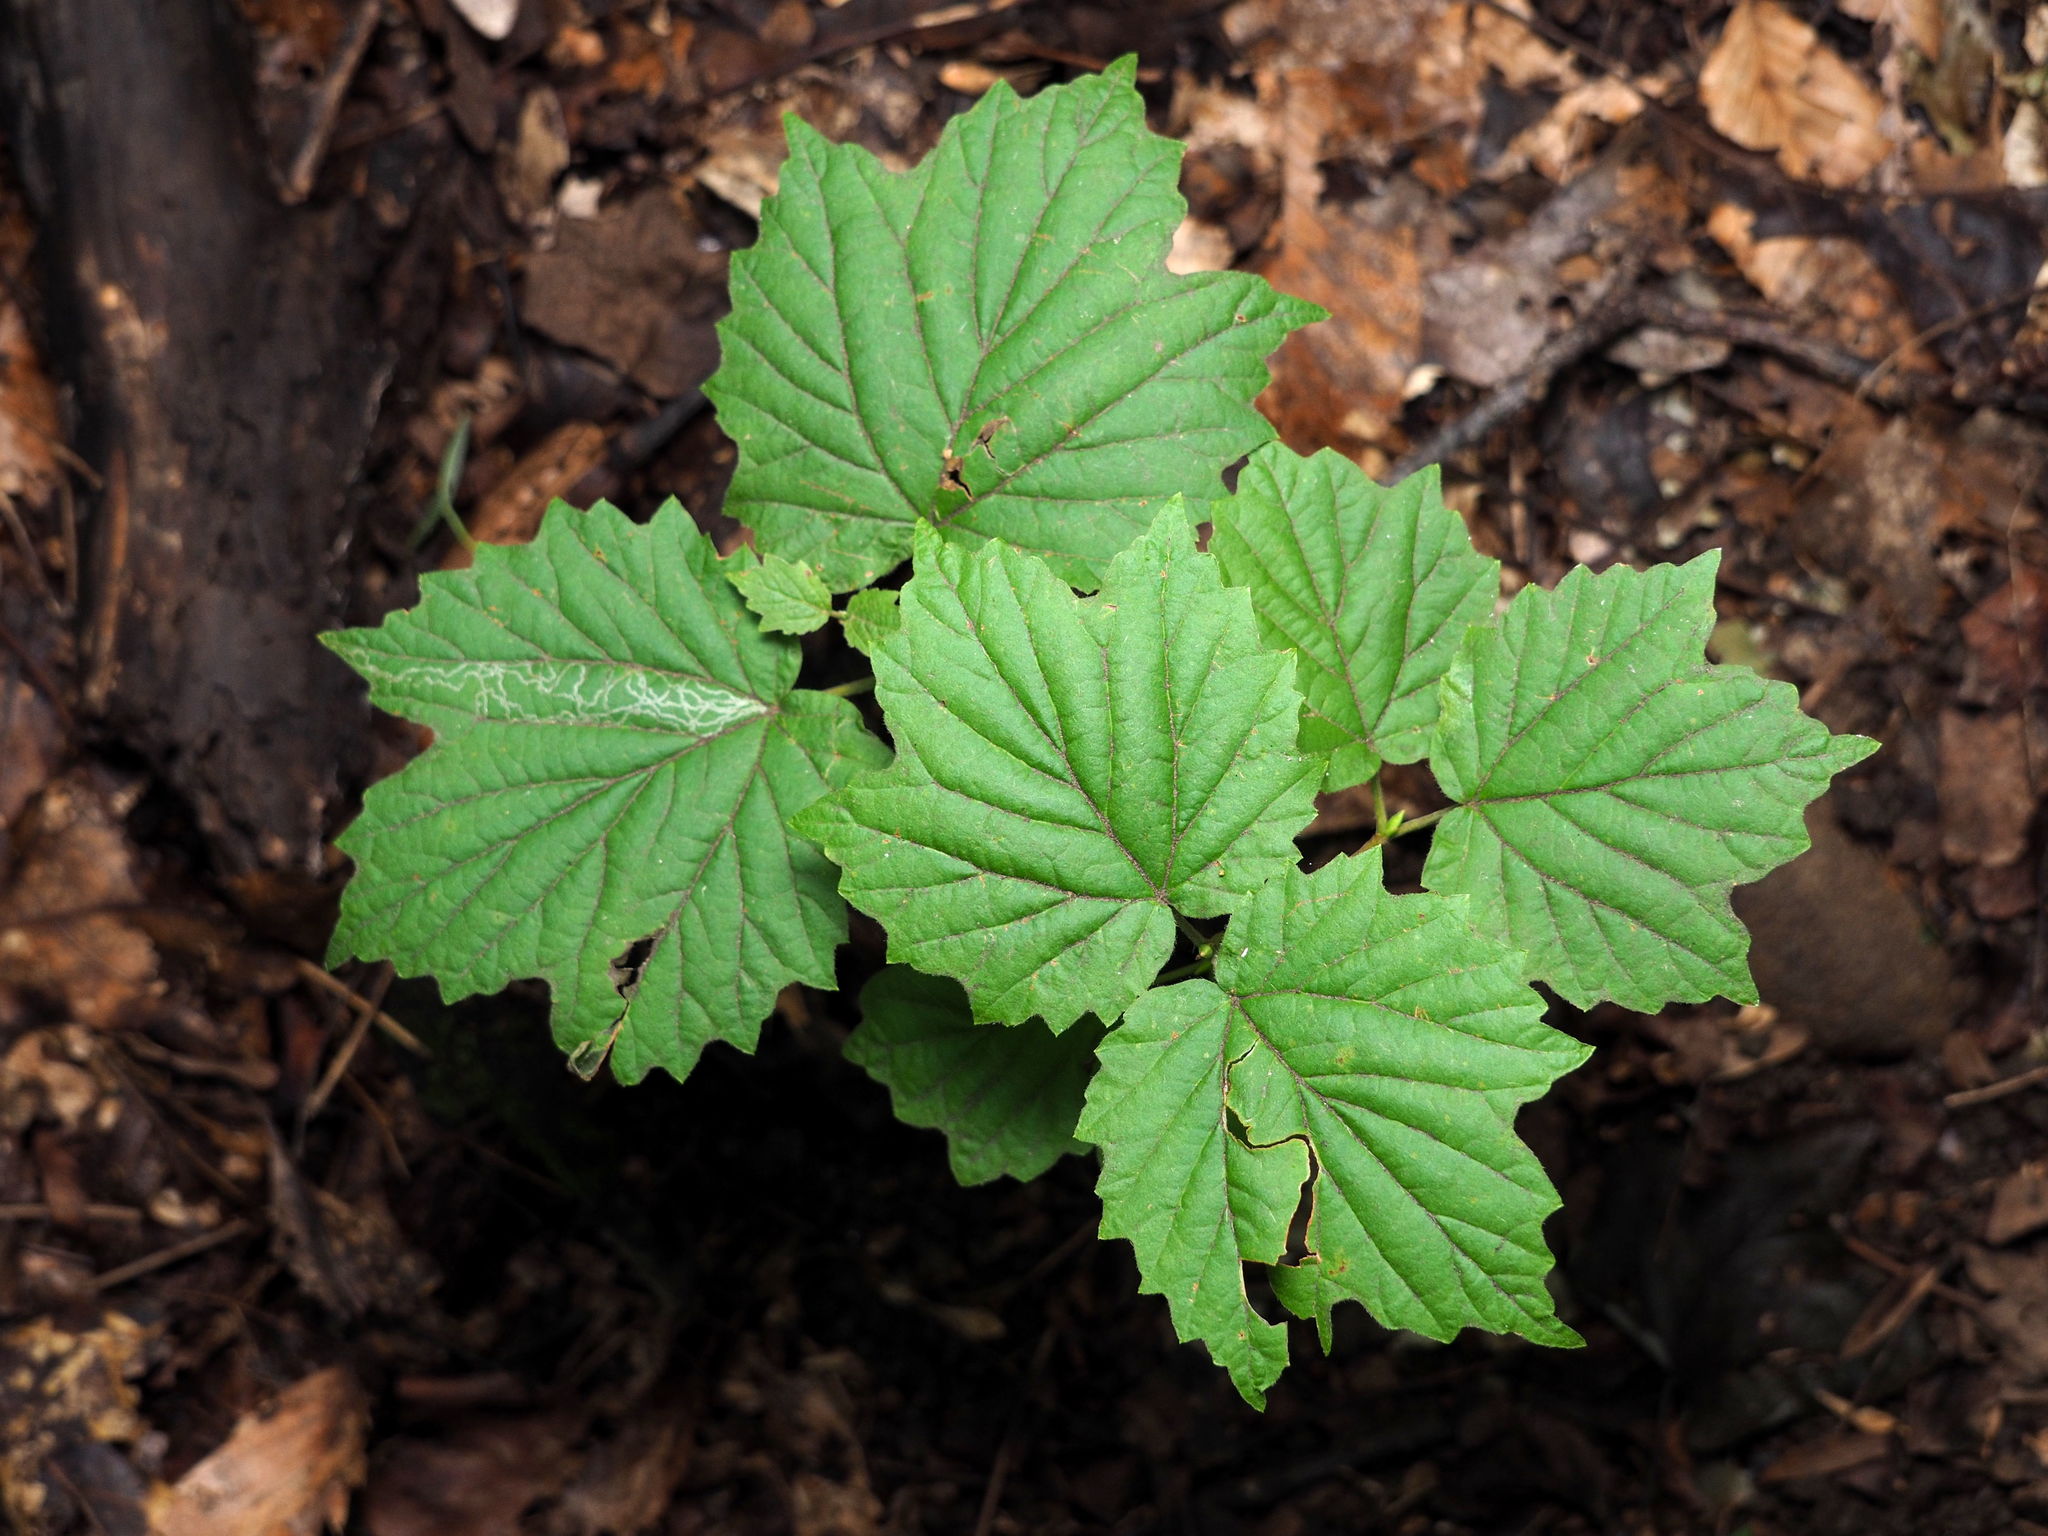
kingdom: Plantae
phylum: Tracheophyta
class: Magnoliopsida
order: Dipsacales
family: Viburnaceae
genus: Viburnum
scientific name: Viburnum acerifolium
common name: Dockmackie
